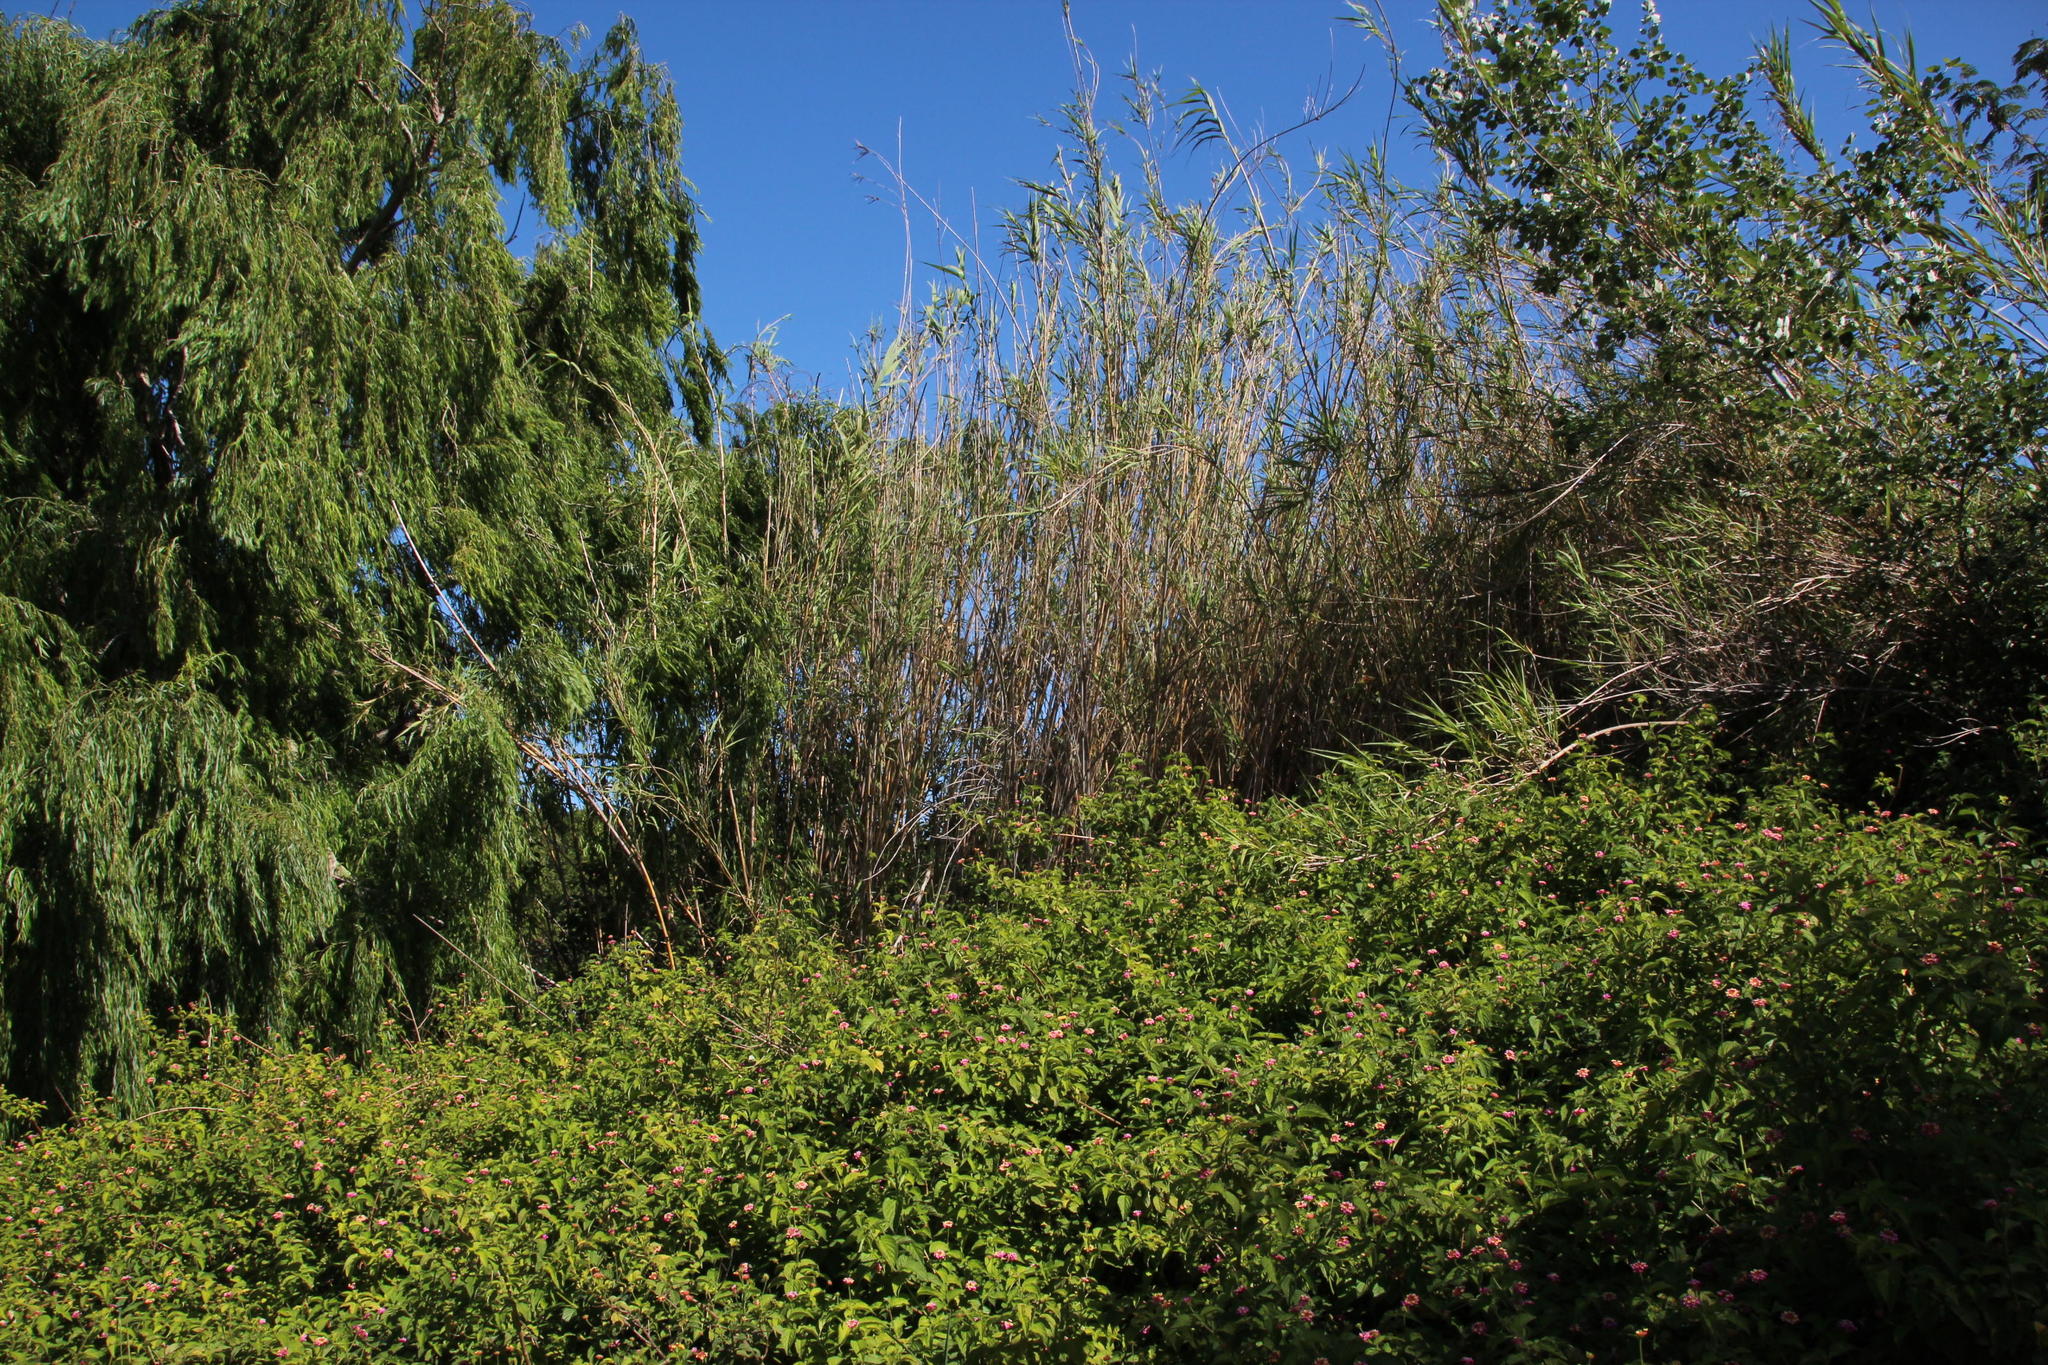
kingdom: Plantae
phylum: Tracheophyta
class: Liliopsida
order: Poales
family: Poaceae
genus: Arundo
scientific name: Arundo donax
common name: Giant reed
